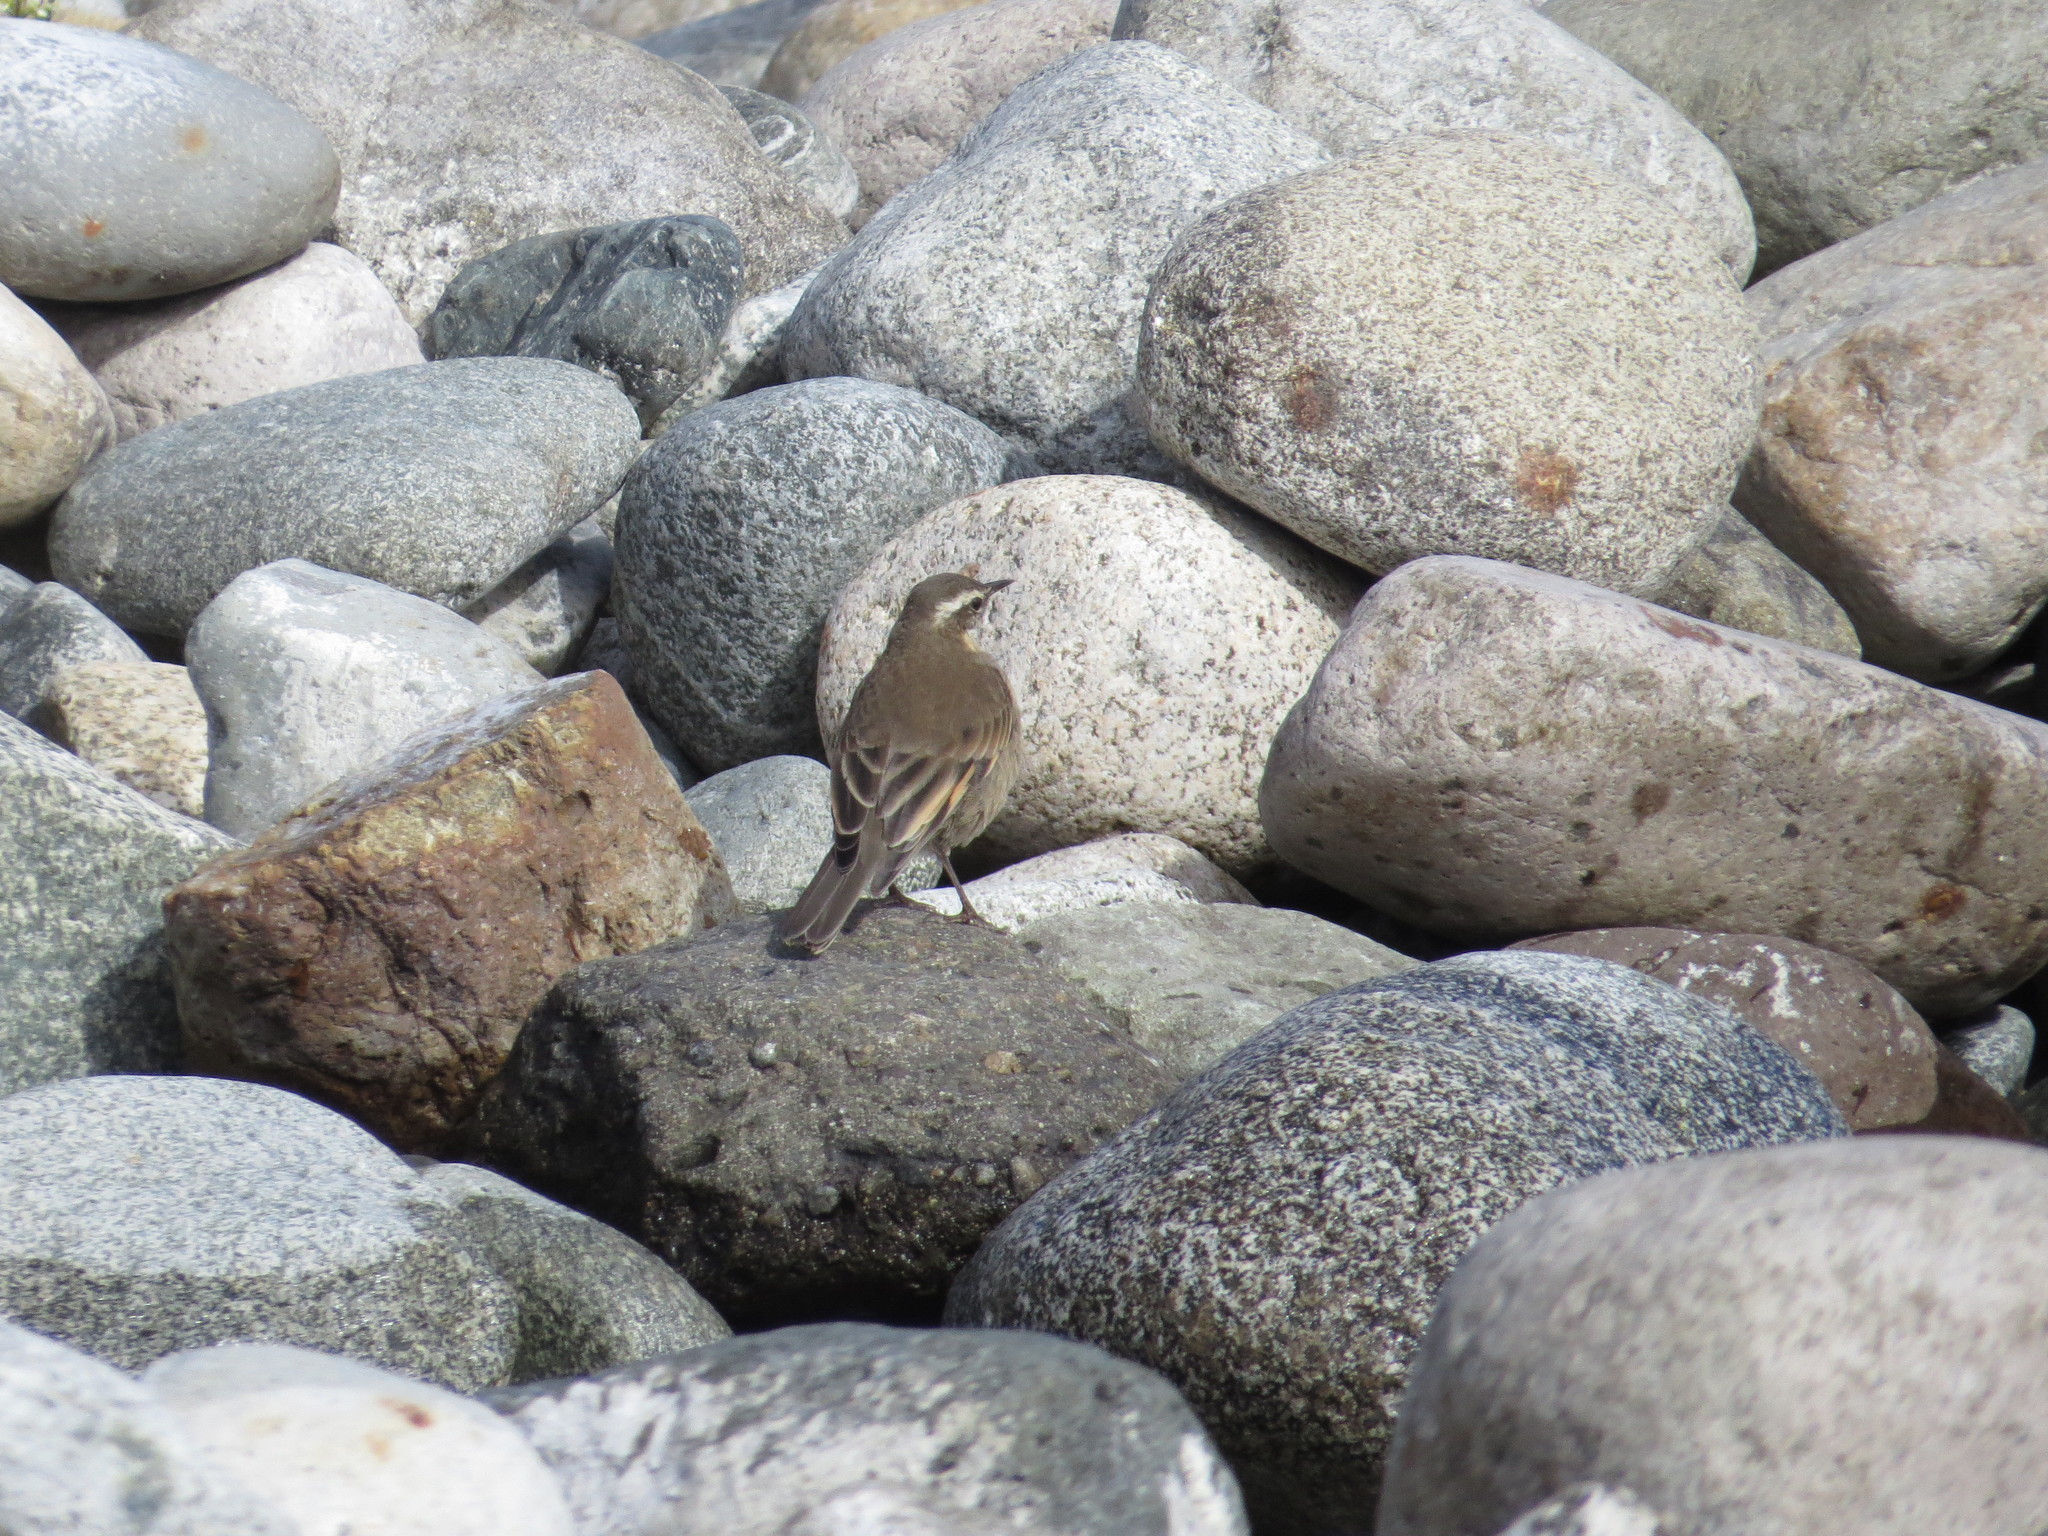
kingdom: Animalia
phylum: Chordata
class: Aves
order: Passeriformes
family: Furnariidae
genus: Cinclodes
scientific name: Cinclodes fuscus
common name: Buff-winged cinclodes
